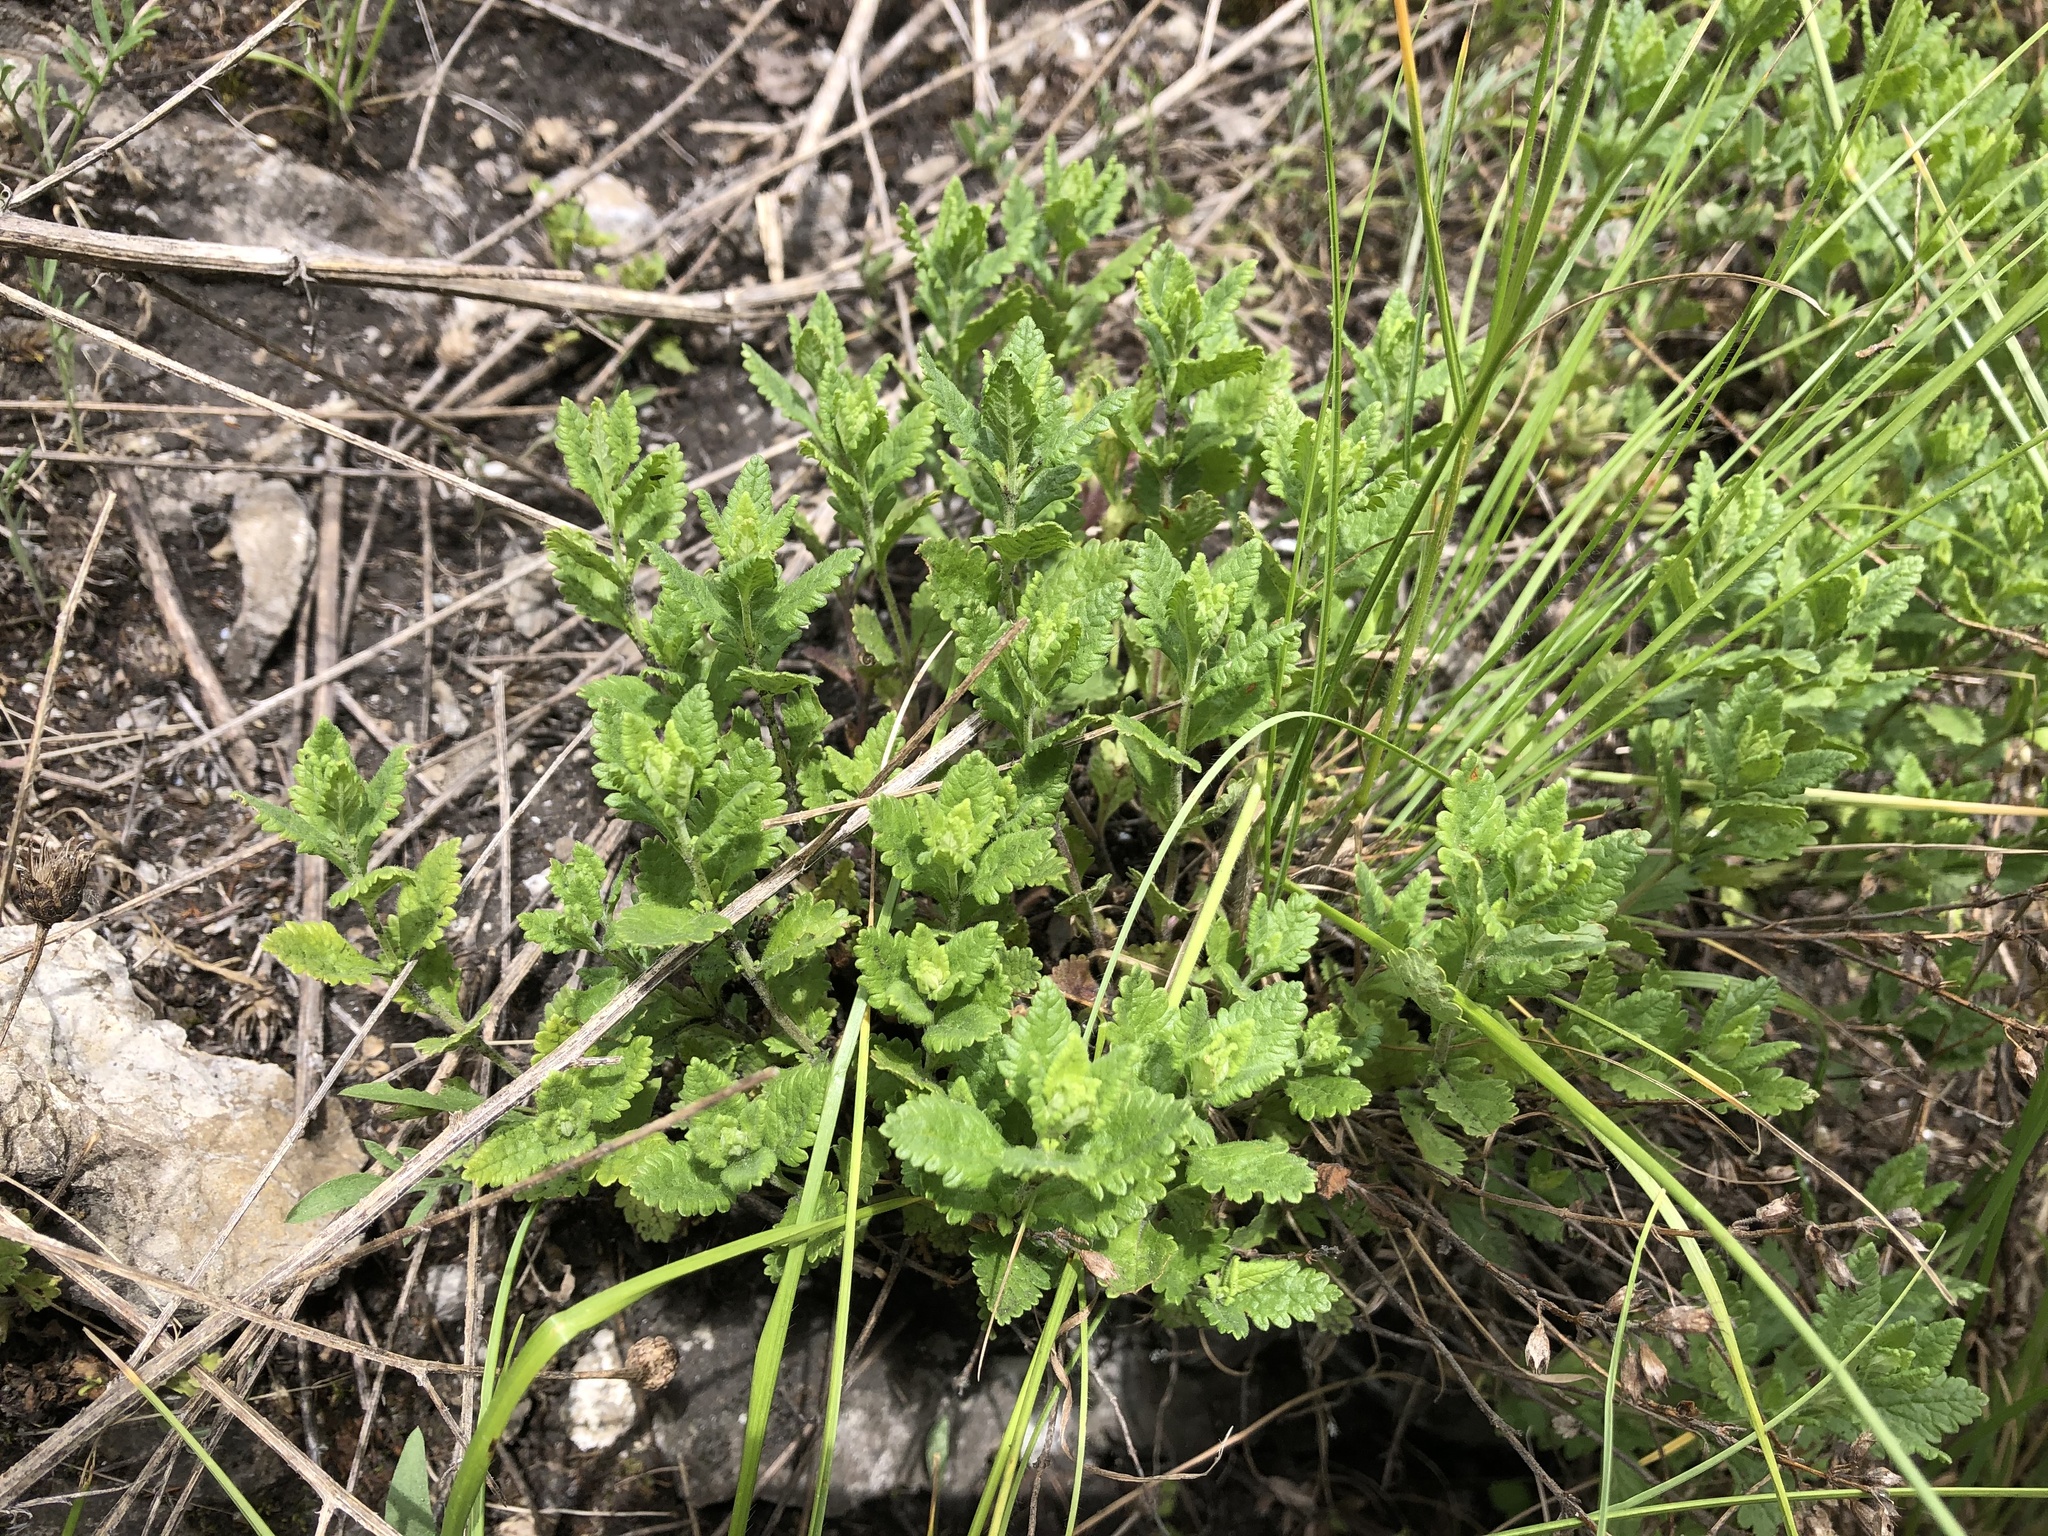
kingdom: Plantae
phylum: Tracheophyta
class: Magnoliopsida
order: Lamiales
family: Lamiaceae
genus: Teucrium
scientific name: Teucrium chamaedrys
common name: Wall germander
